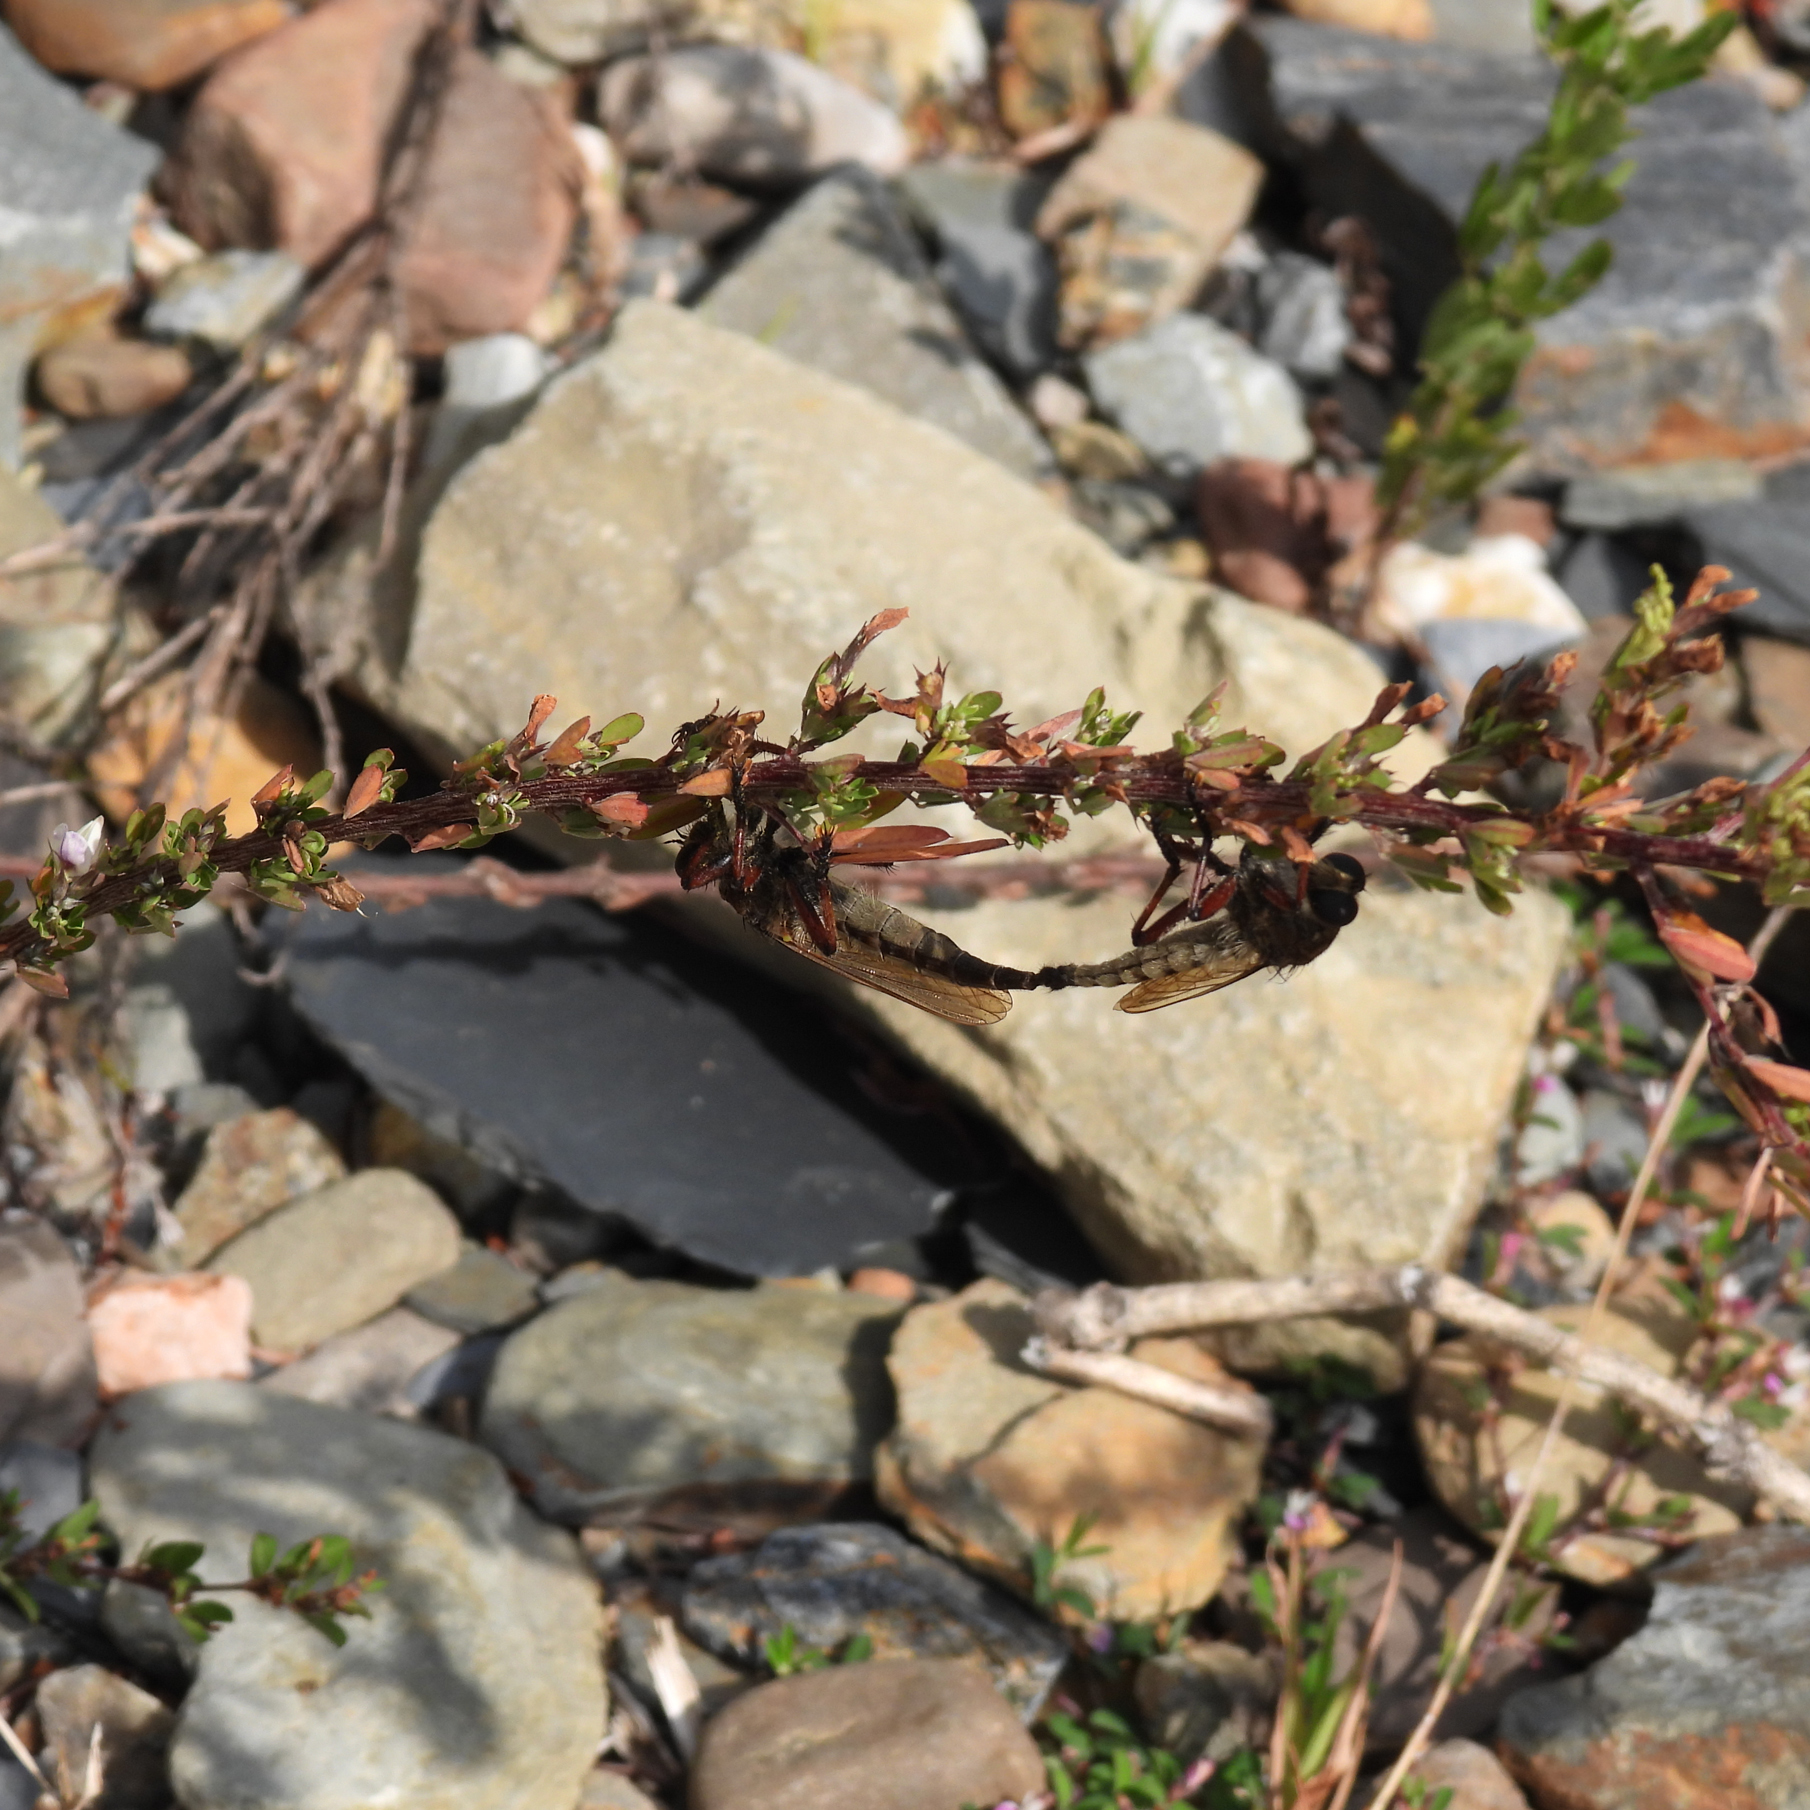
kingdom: Animalia
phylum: Arthropoda
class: Insecta
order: Diptera
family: Asilidae
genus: Promachus
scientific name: Promachus hinei
